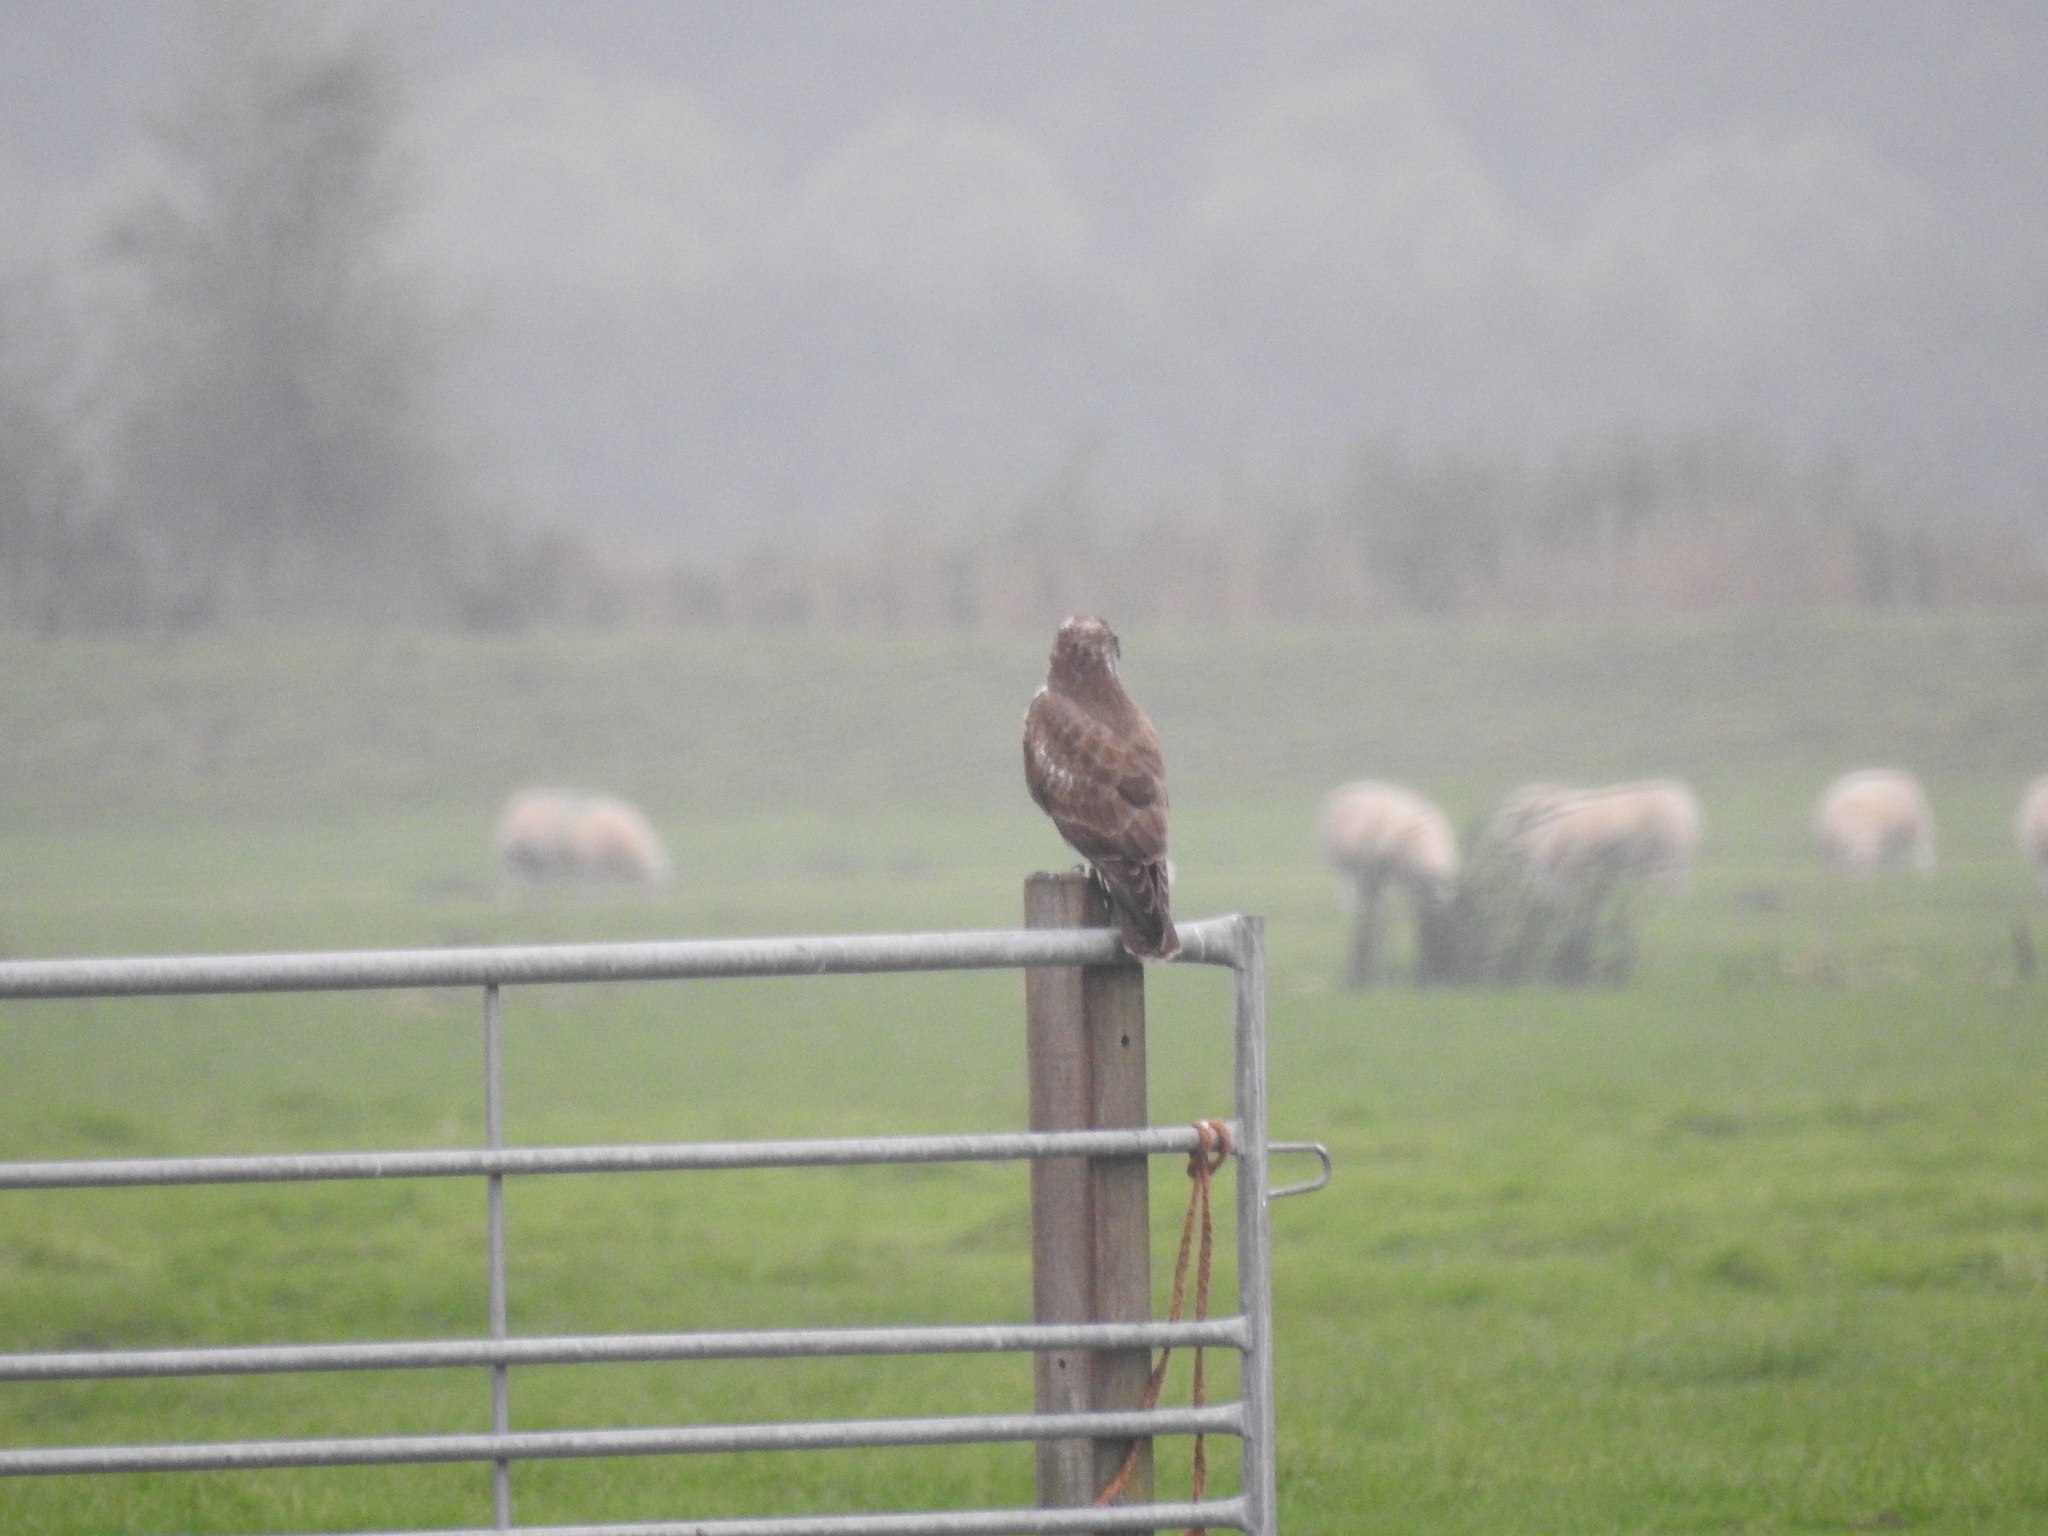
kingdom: Animalia
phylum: Chordata
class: Aves
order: Accipitriformes
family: Accipitridae
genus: Buteo
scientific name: Buteo buteo
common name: Common buzzard
